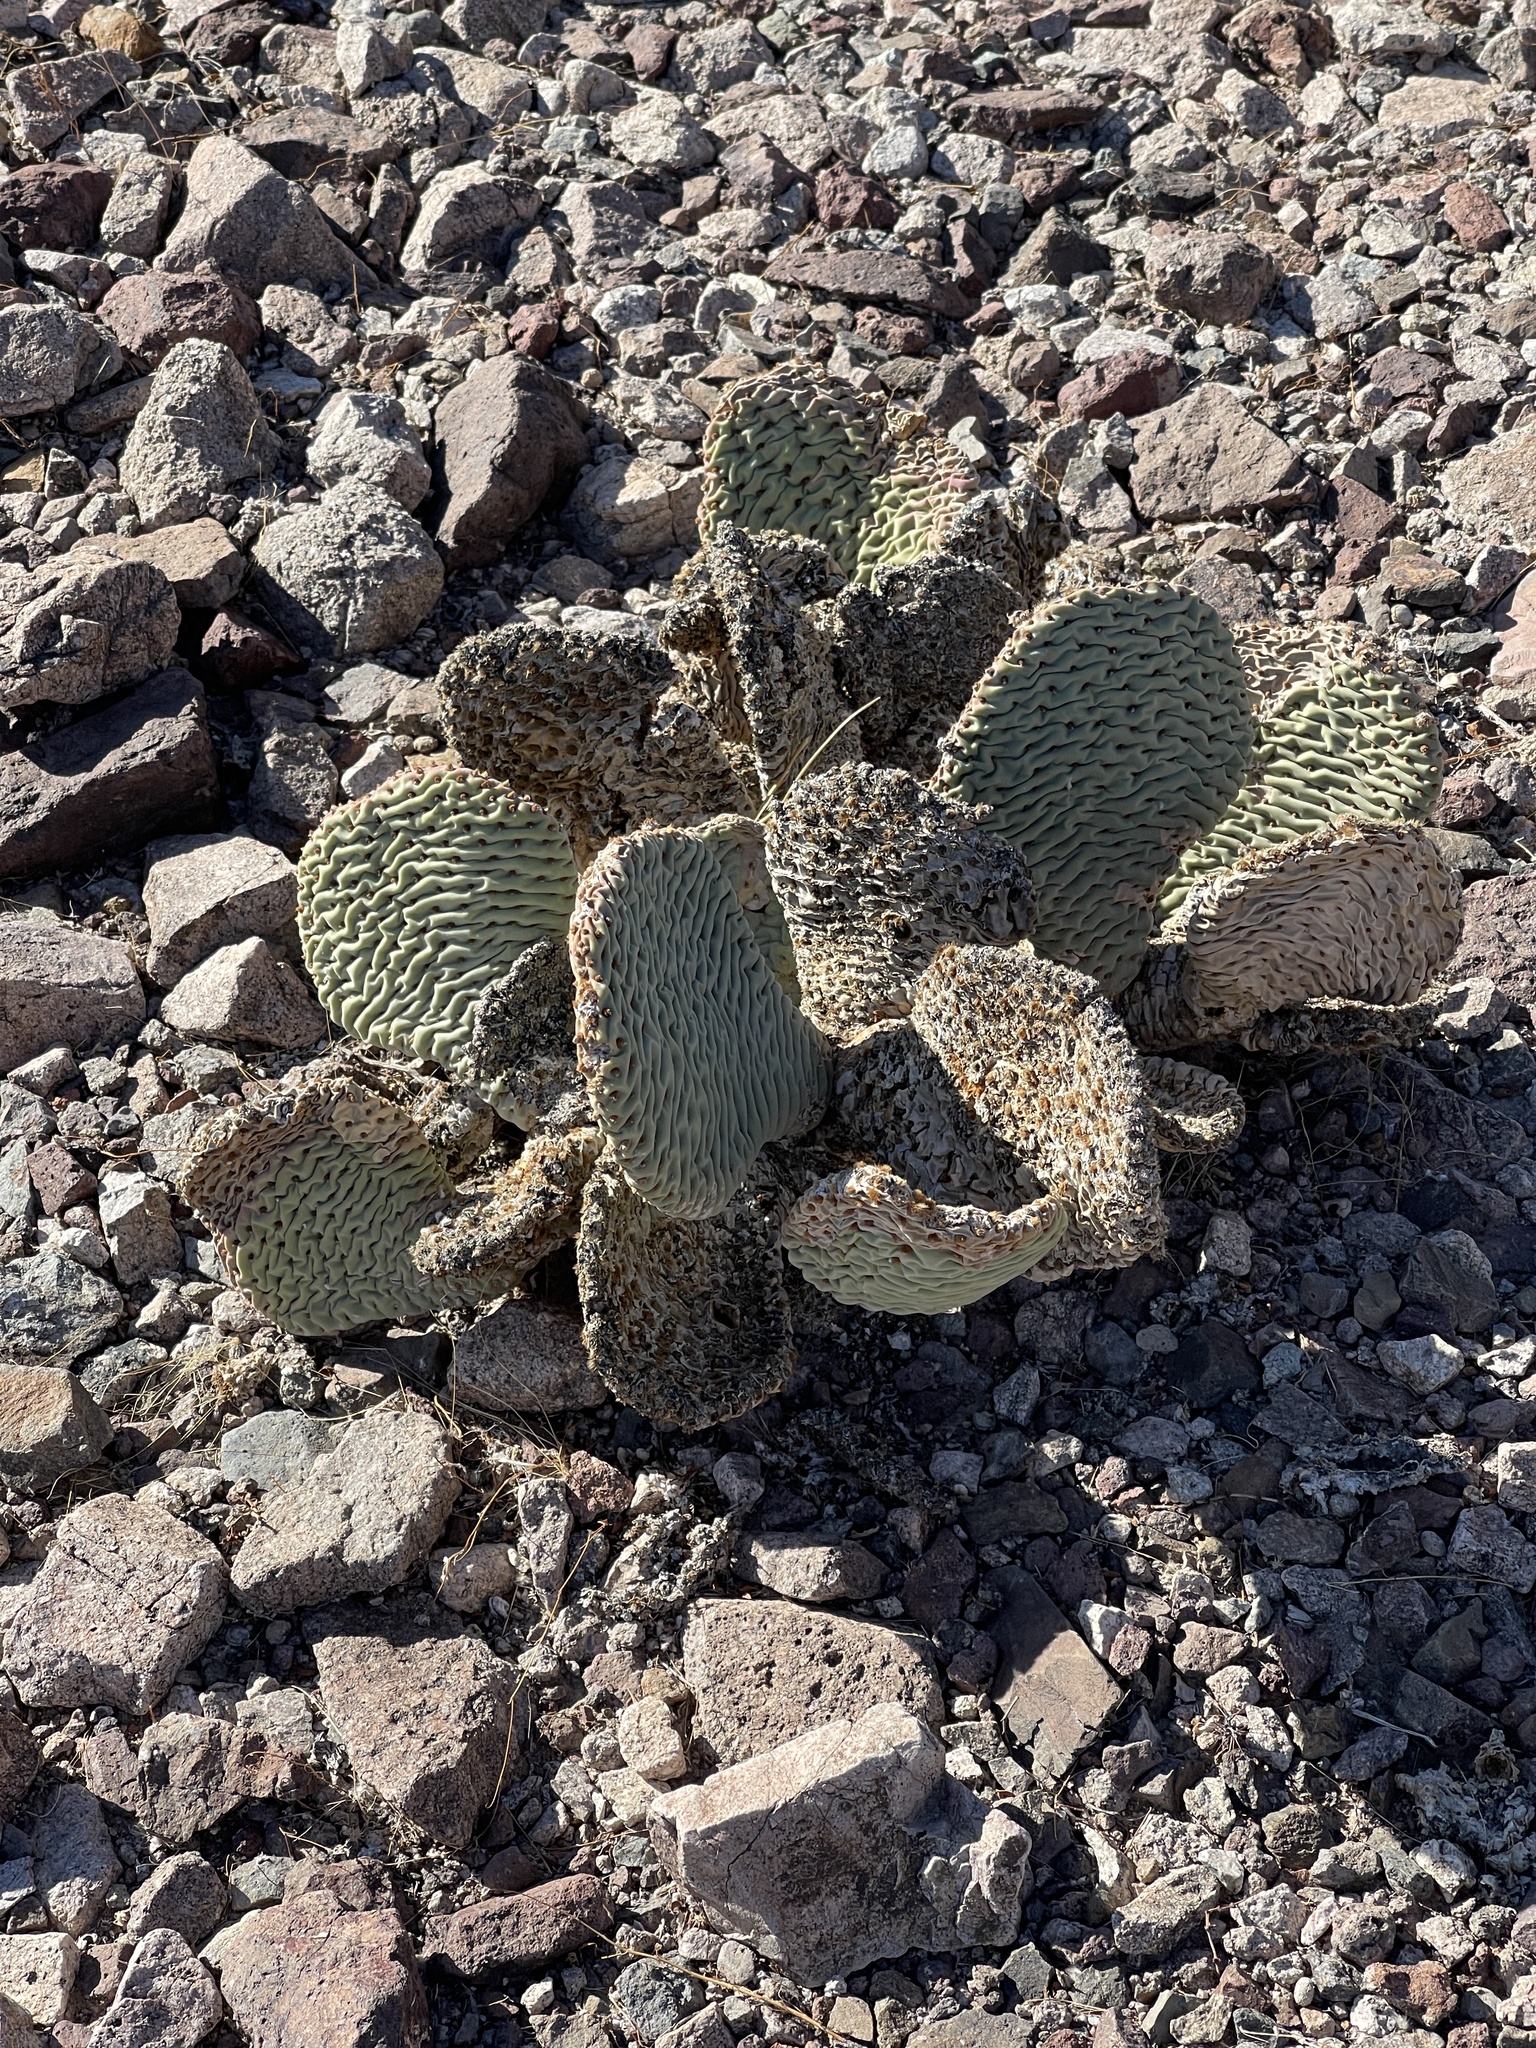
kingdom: Plantae
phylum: Tracheophyta
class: Magnoliopsida
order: Caryophyllales
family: Cactaceae
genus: Opuntia
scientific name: Opuntia basilaris
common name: Beavertail prickly-pear
